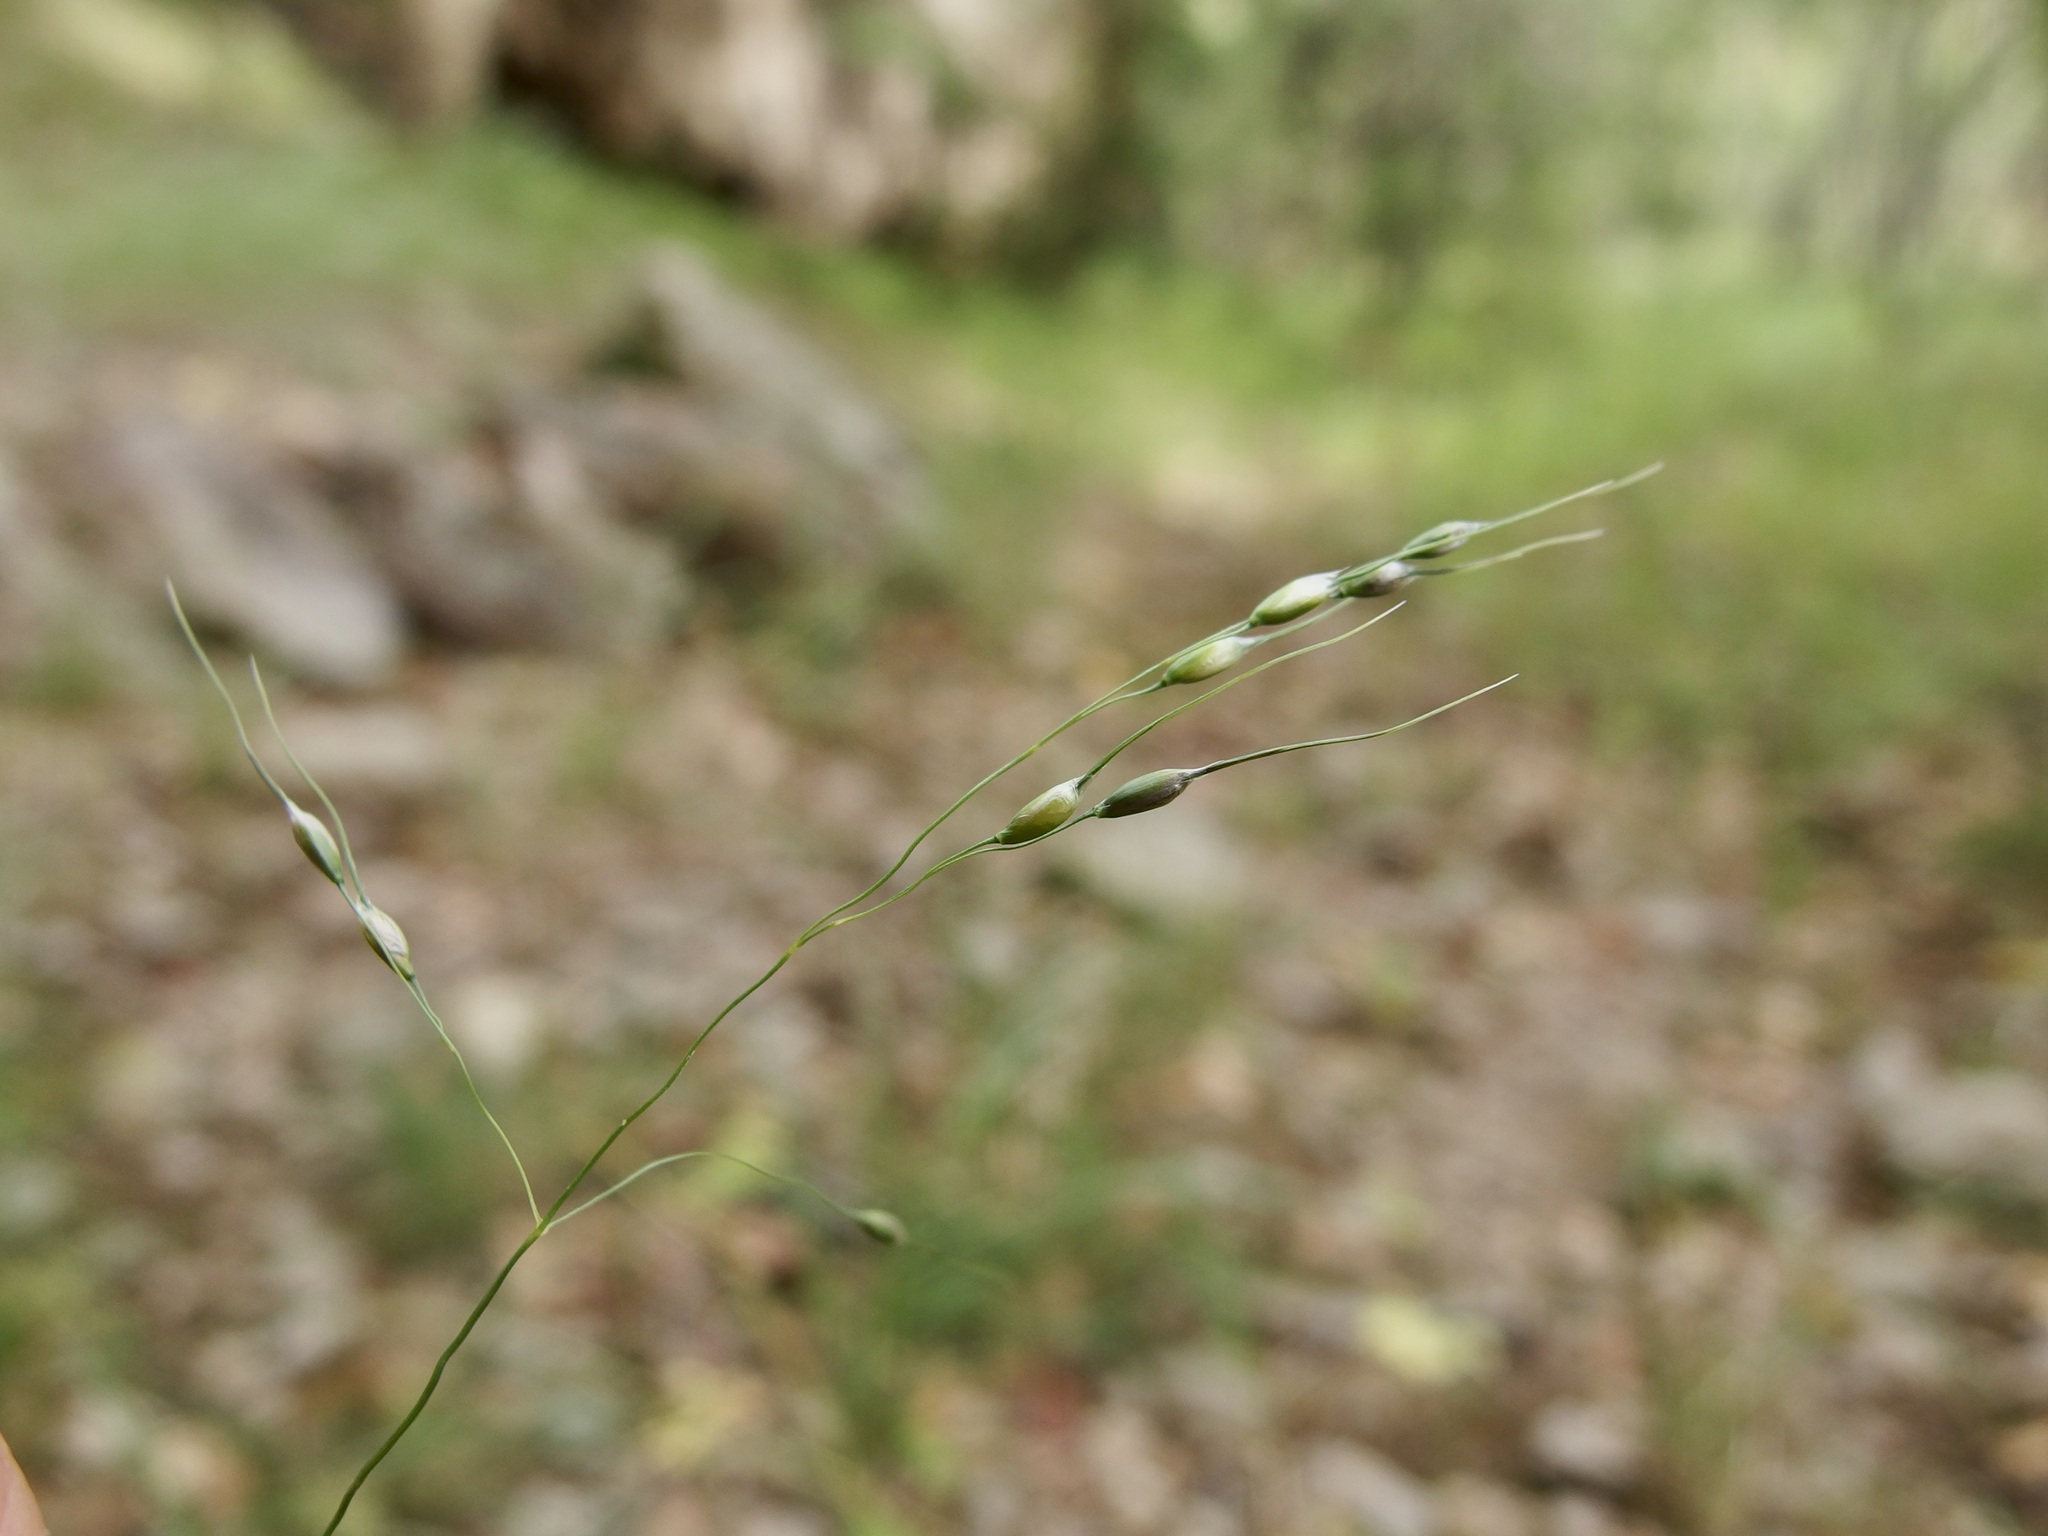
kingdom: Plantae
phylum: Tracheophyta
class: Liliopsida
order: Poales
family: Poaceae
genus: Piptochaetium
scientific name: Piptochaetium fimbriatum
